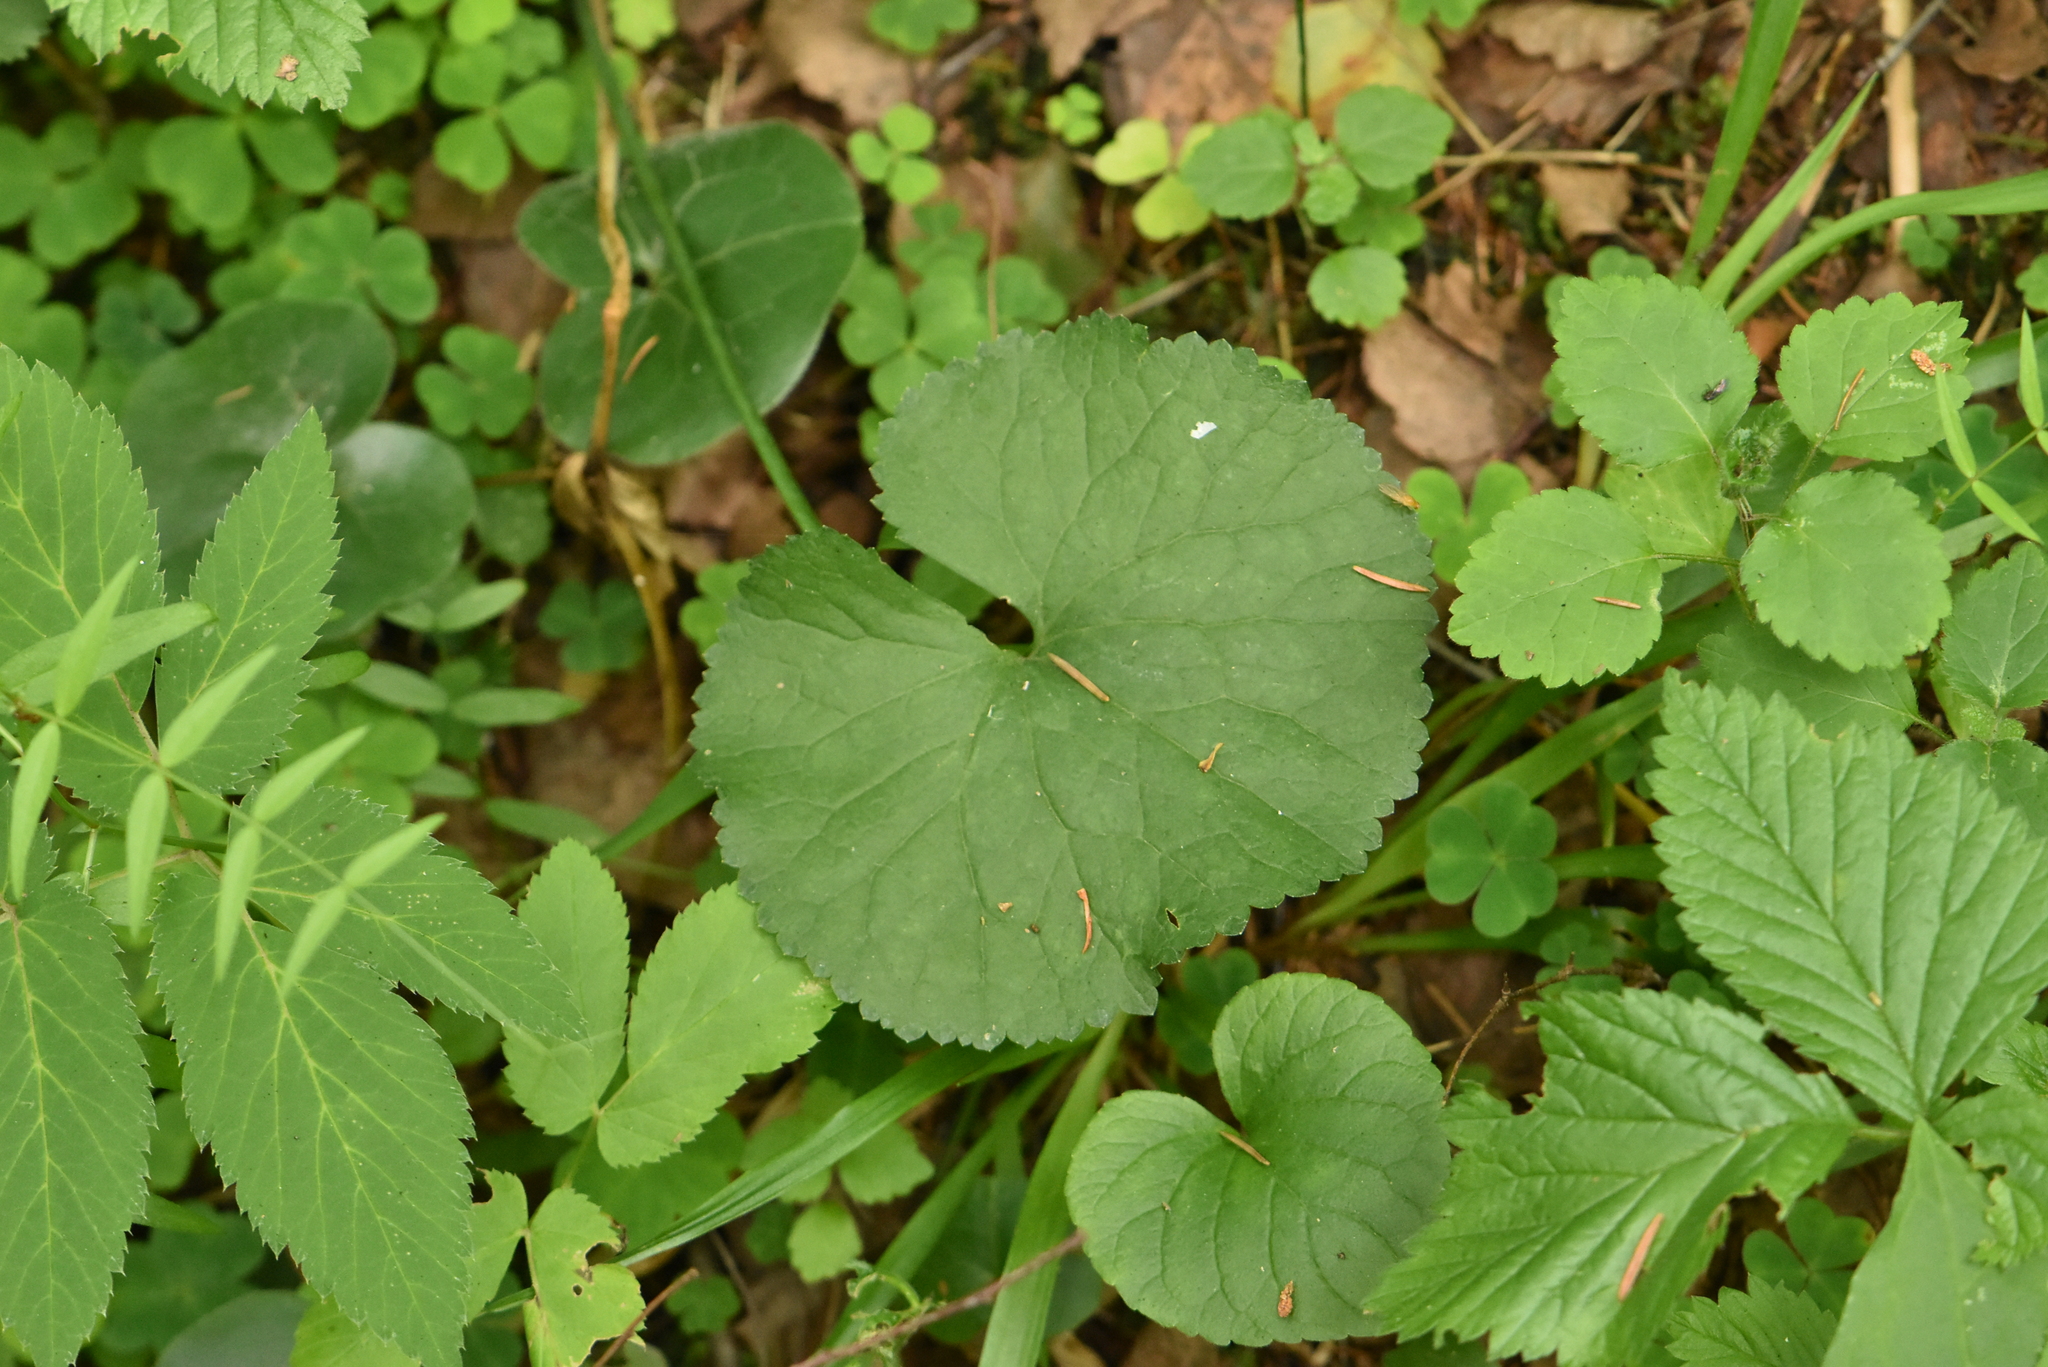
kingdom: Plantae
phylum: Tracheophyta
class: Magnoliopsida
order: Ranunculales
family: Ranunculaceae
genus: Ranunculus
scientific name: Ranunculus cassubicus
